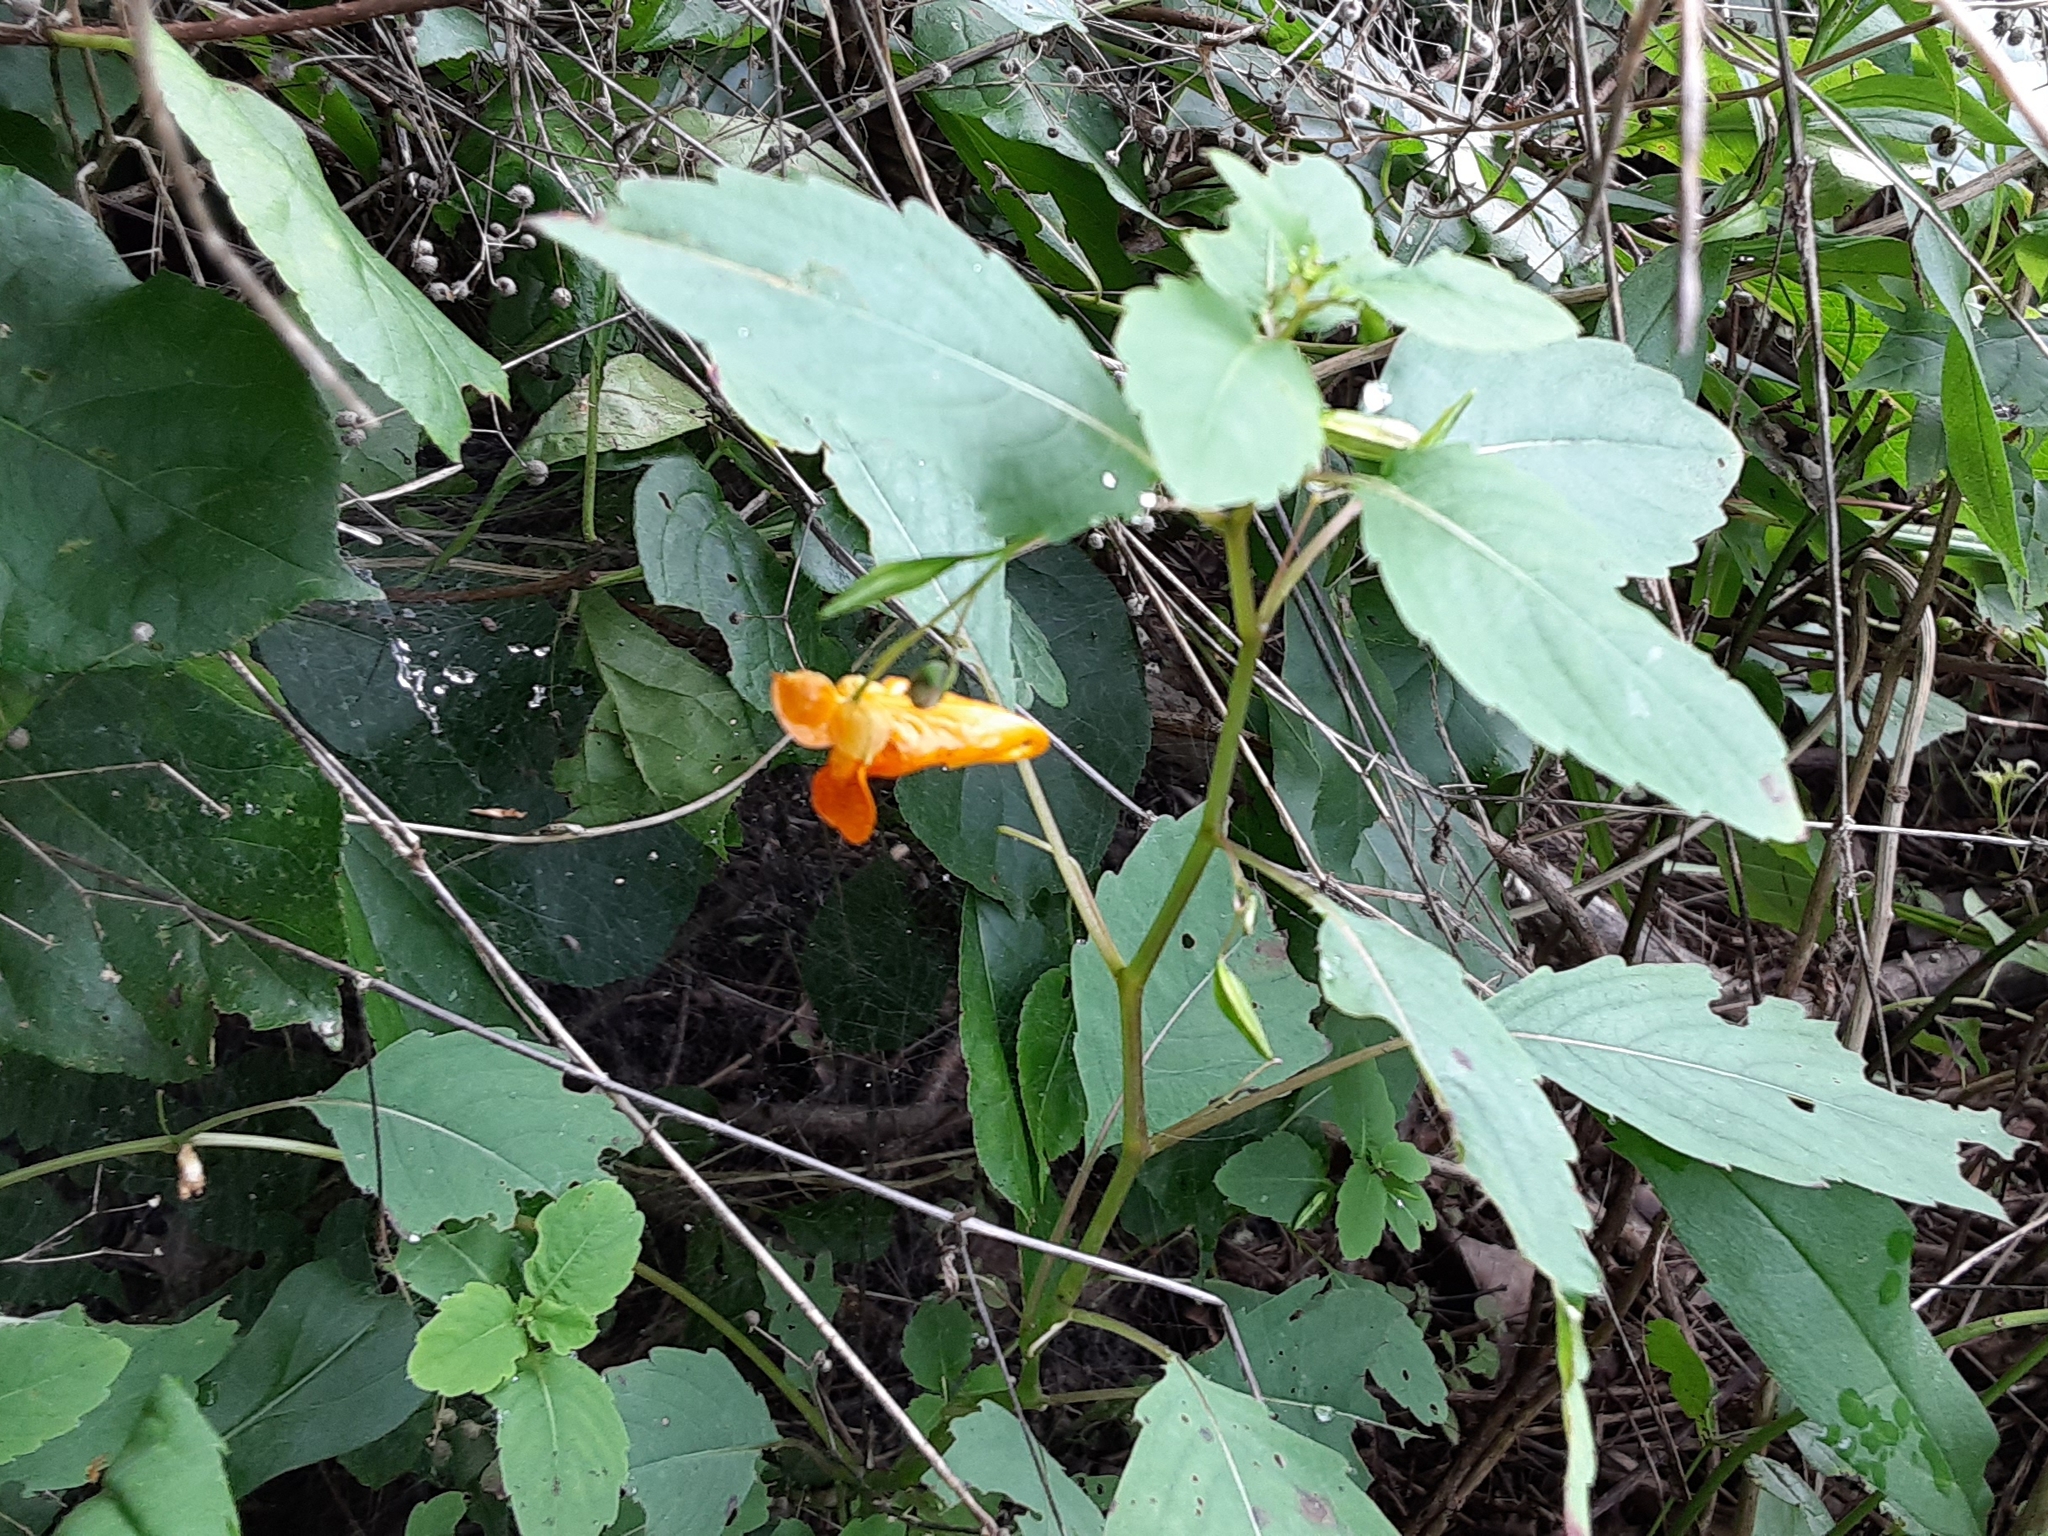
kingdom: Plantae
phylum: Tracheophyta
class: Magnoliopsida
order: Ericales
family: Balsaminaceae
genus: Impatiens
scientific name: Impatiens capensis
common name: Orange balsam
